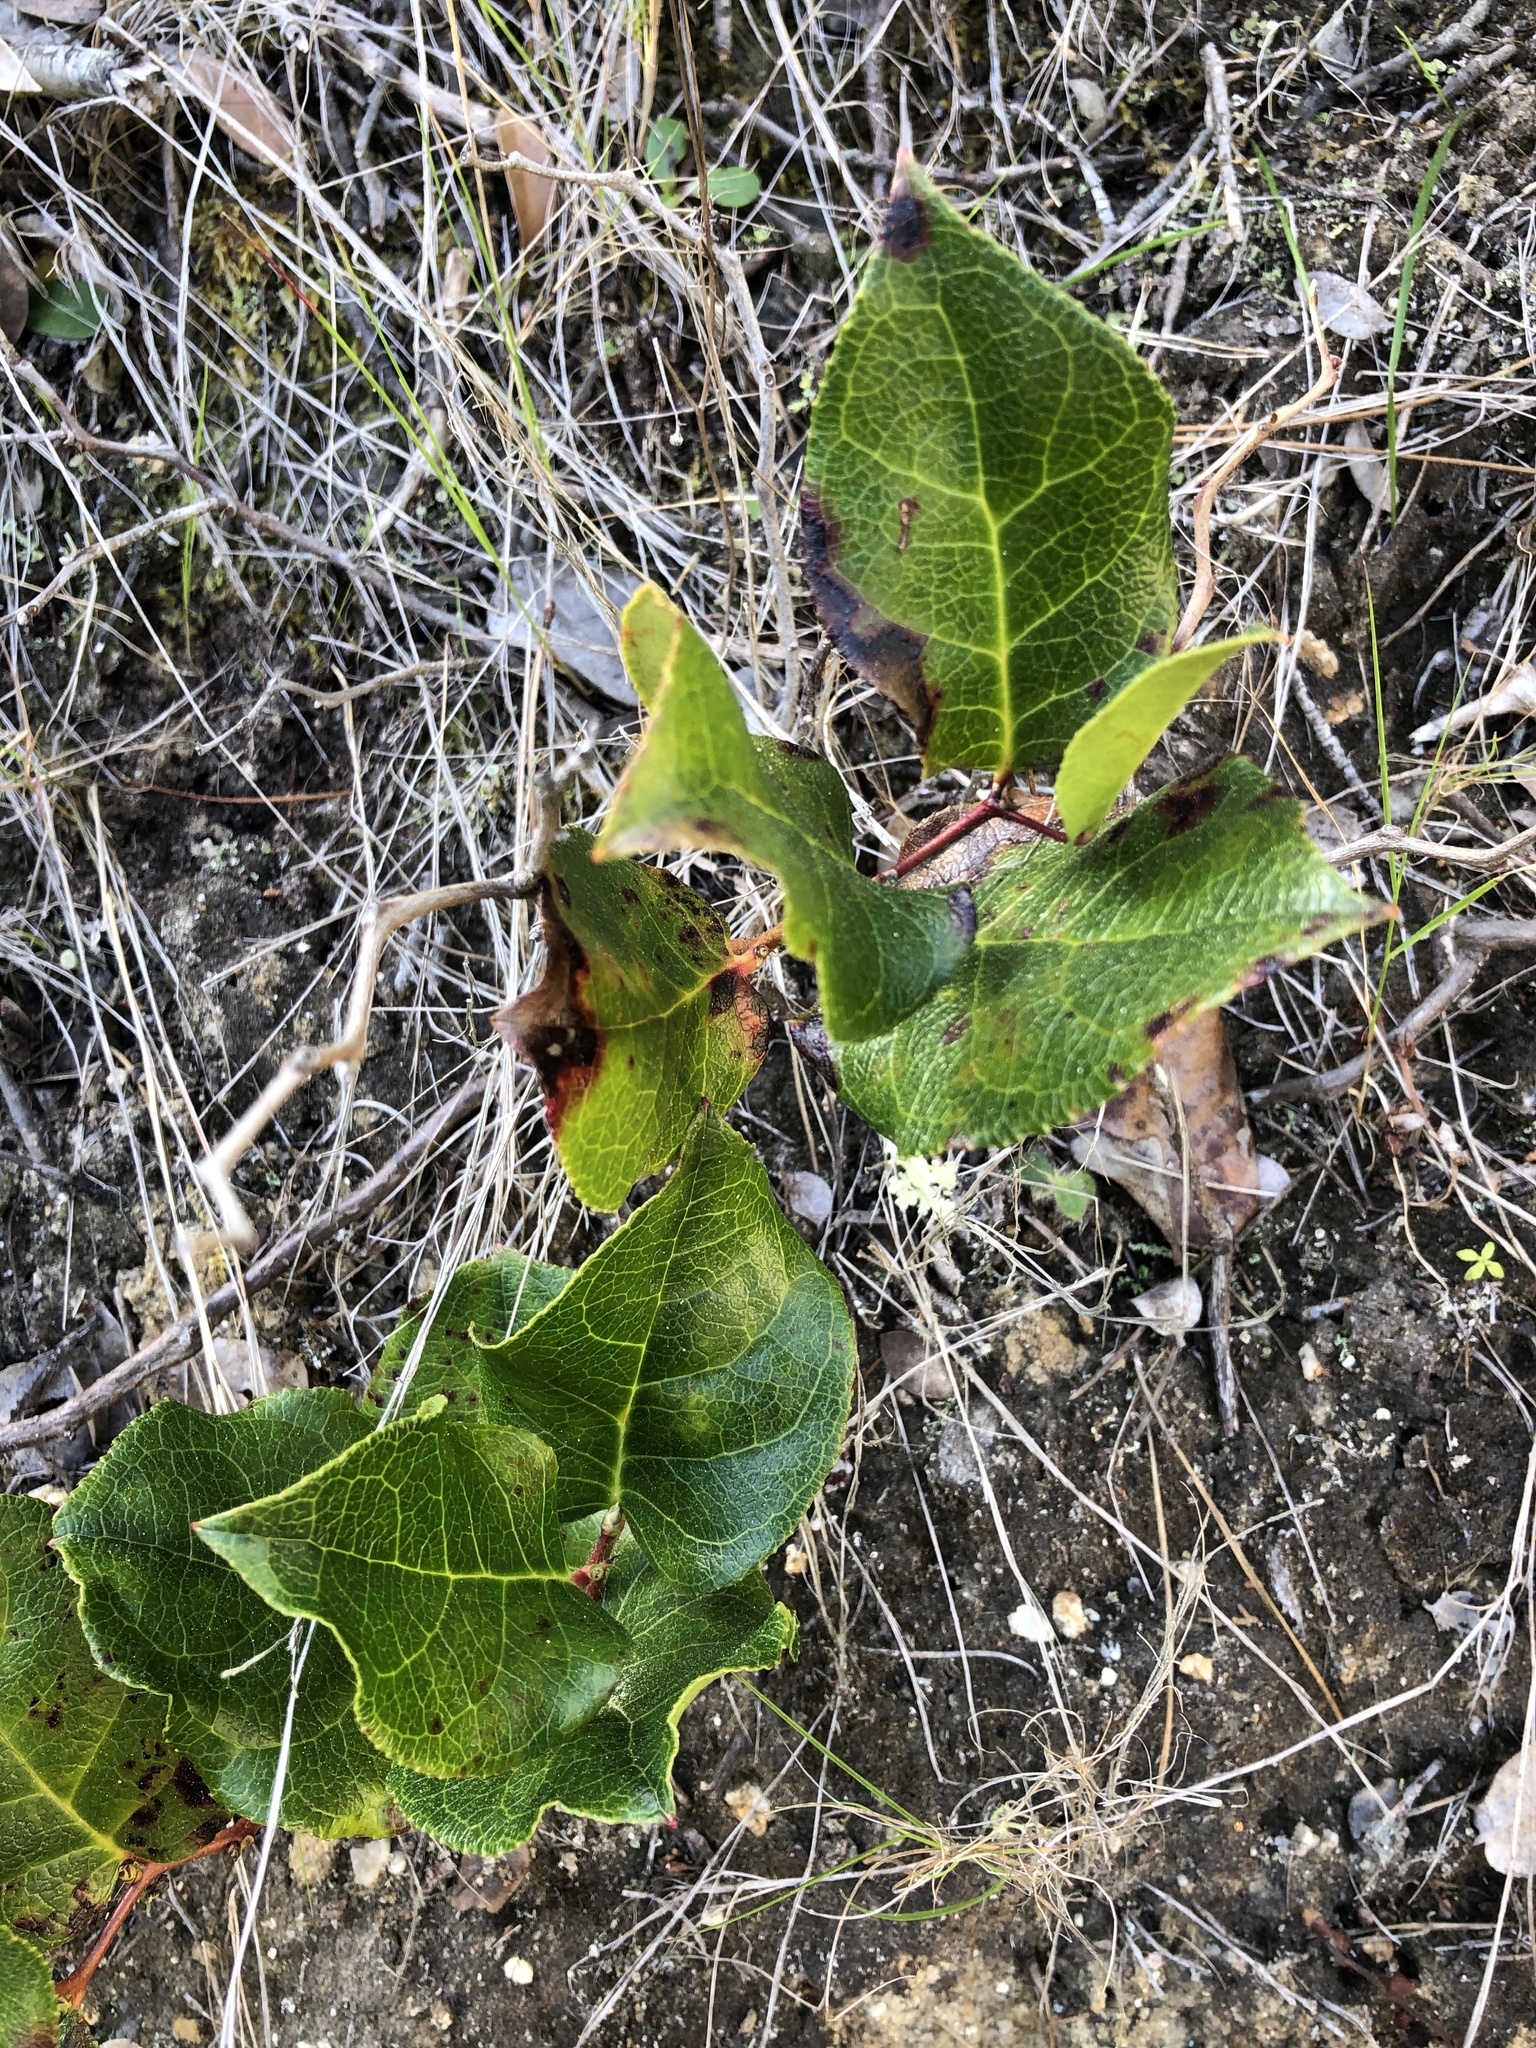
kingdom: Plantae
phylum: Tracheophyta
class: Magnoliopsida
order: Ericales
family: Ericaceae
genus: Gaultheria
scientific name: Gaultheria shallon
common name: Shallon
